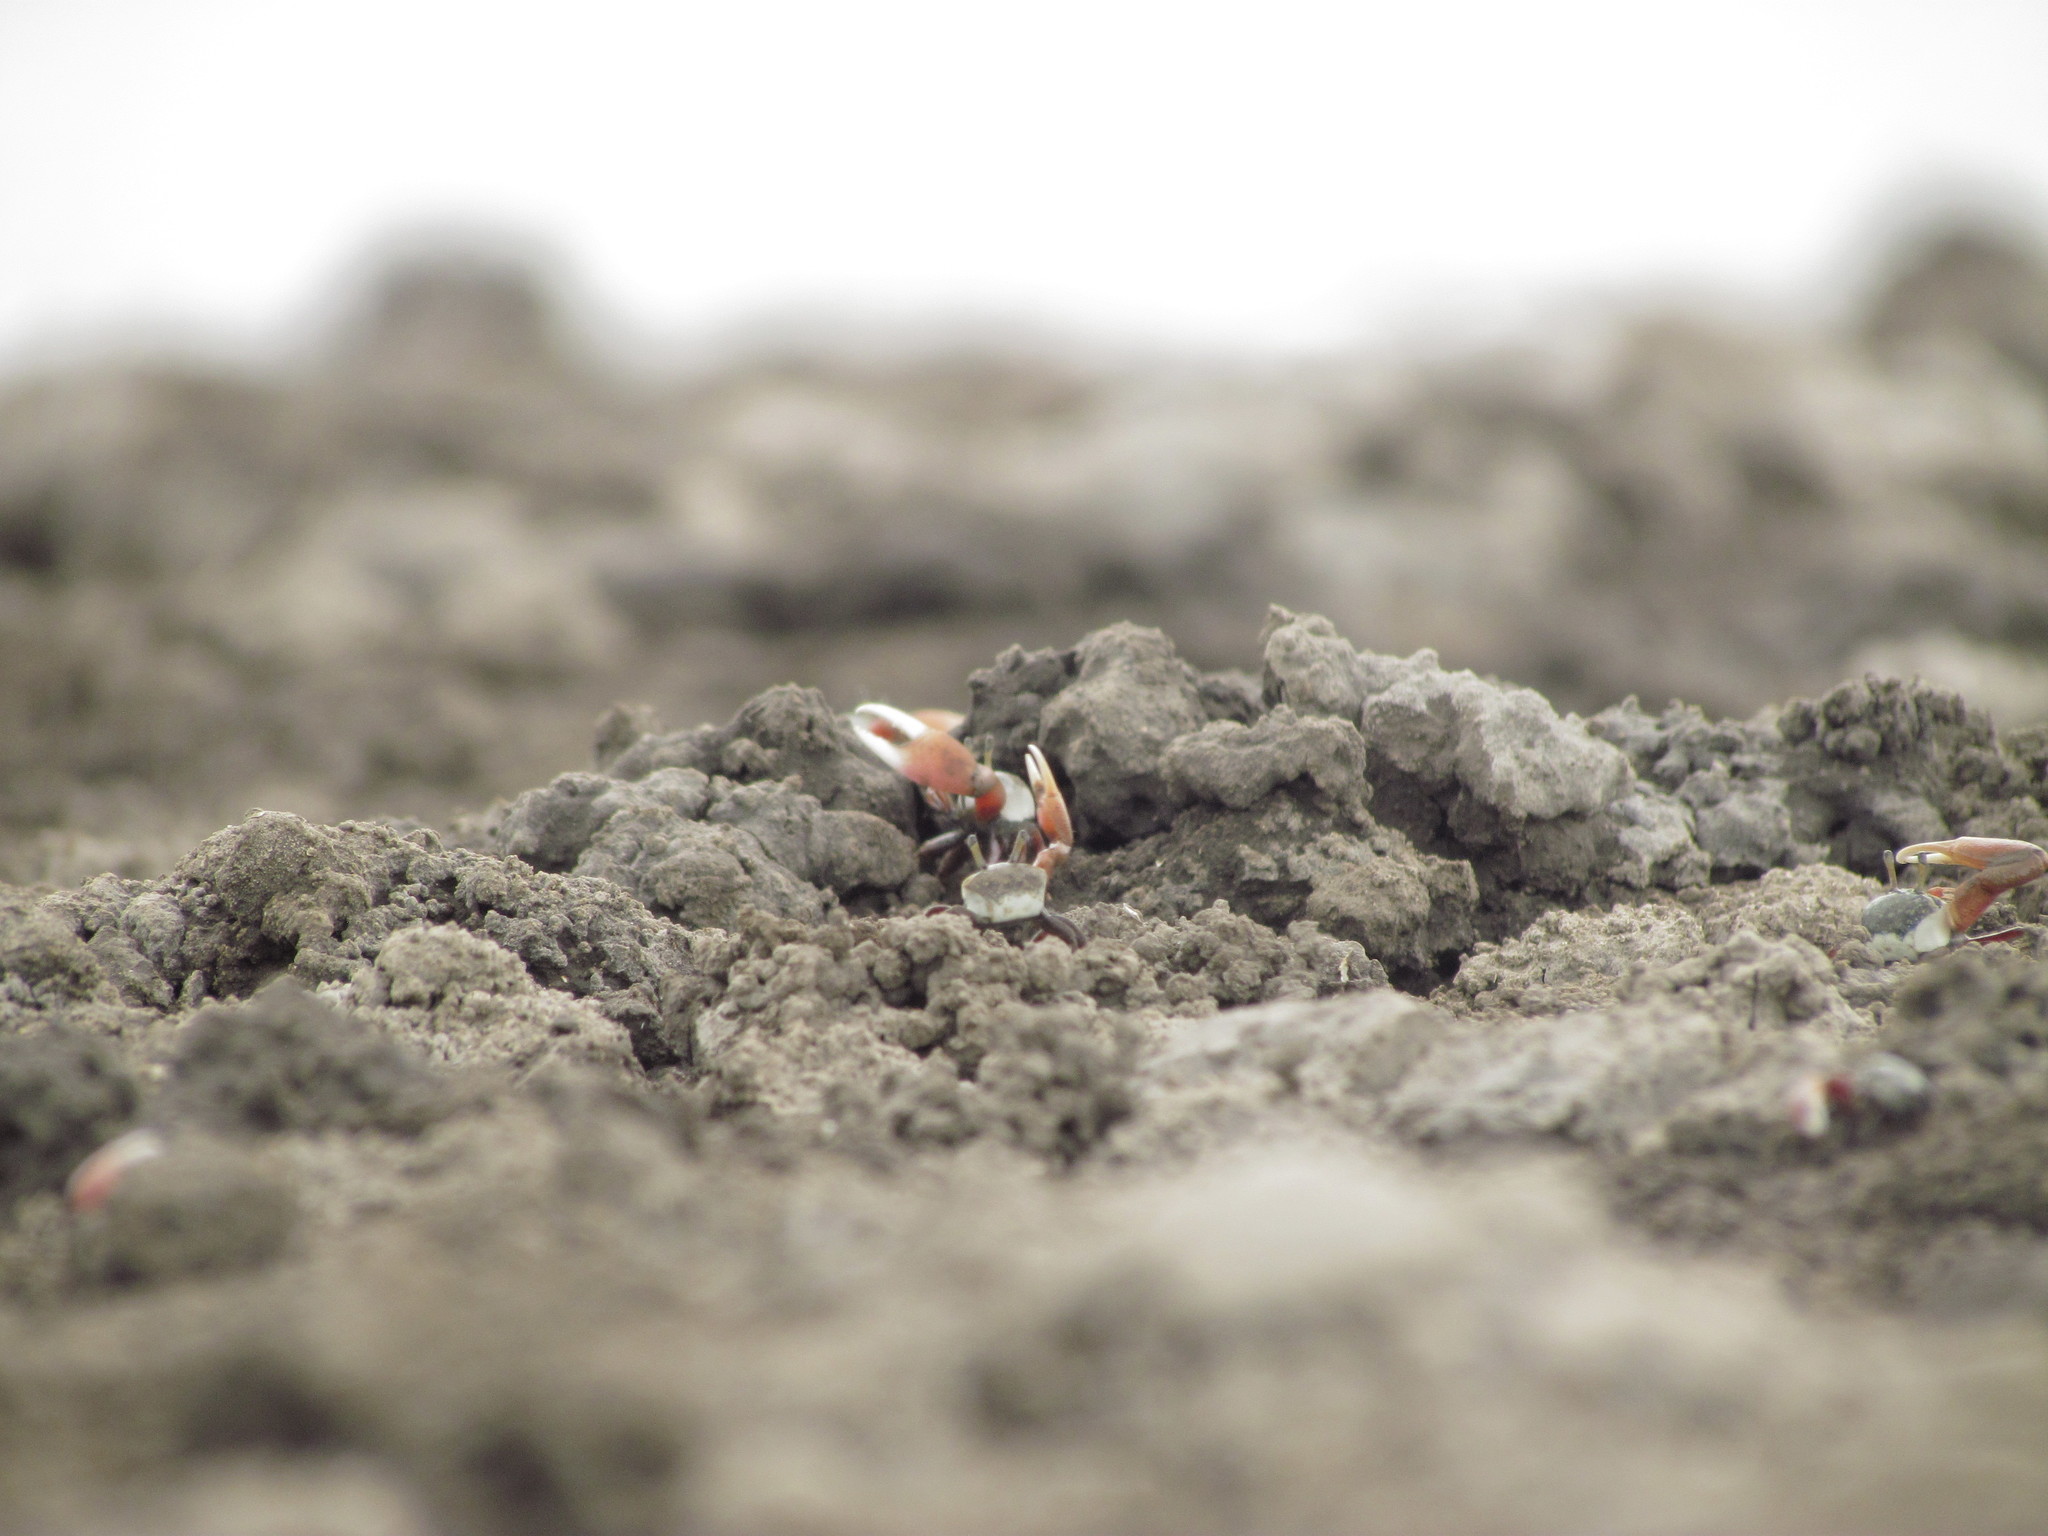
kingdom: Animalia
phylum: Arthropoda
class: Malacostraca
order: Decapoda
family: Ocypodidae
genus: Leptuca
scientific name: Leptuca uruguayensis
